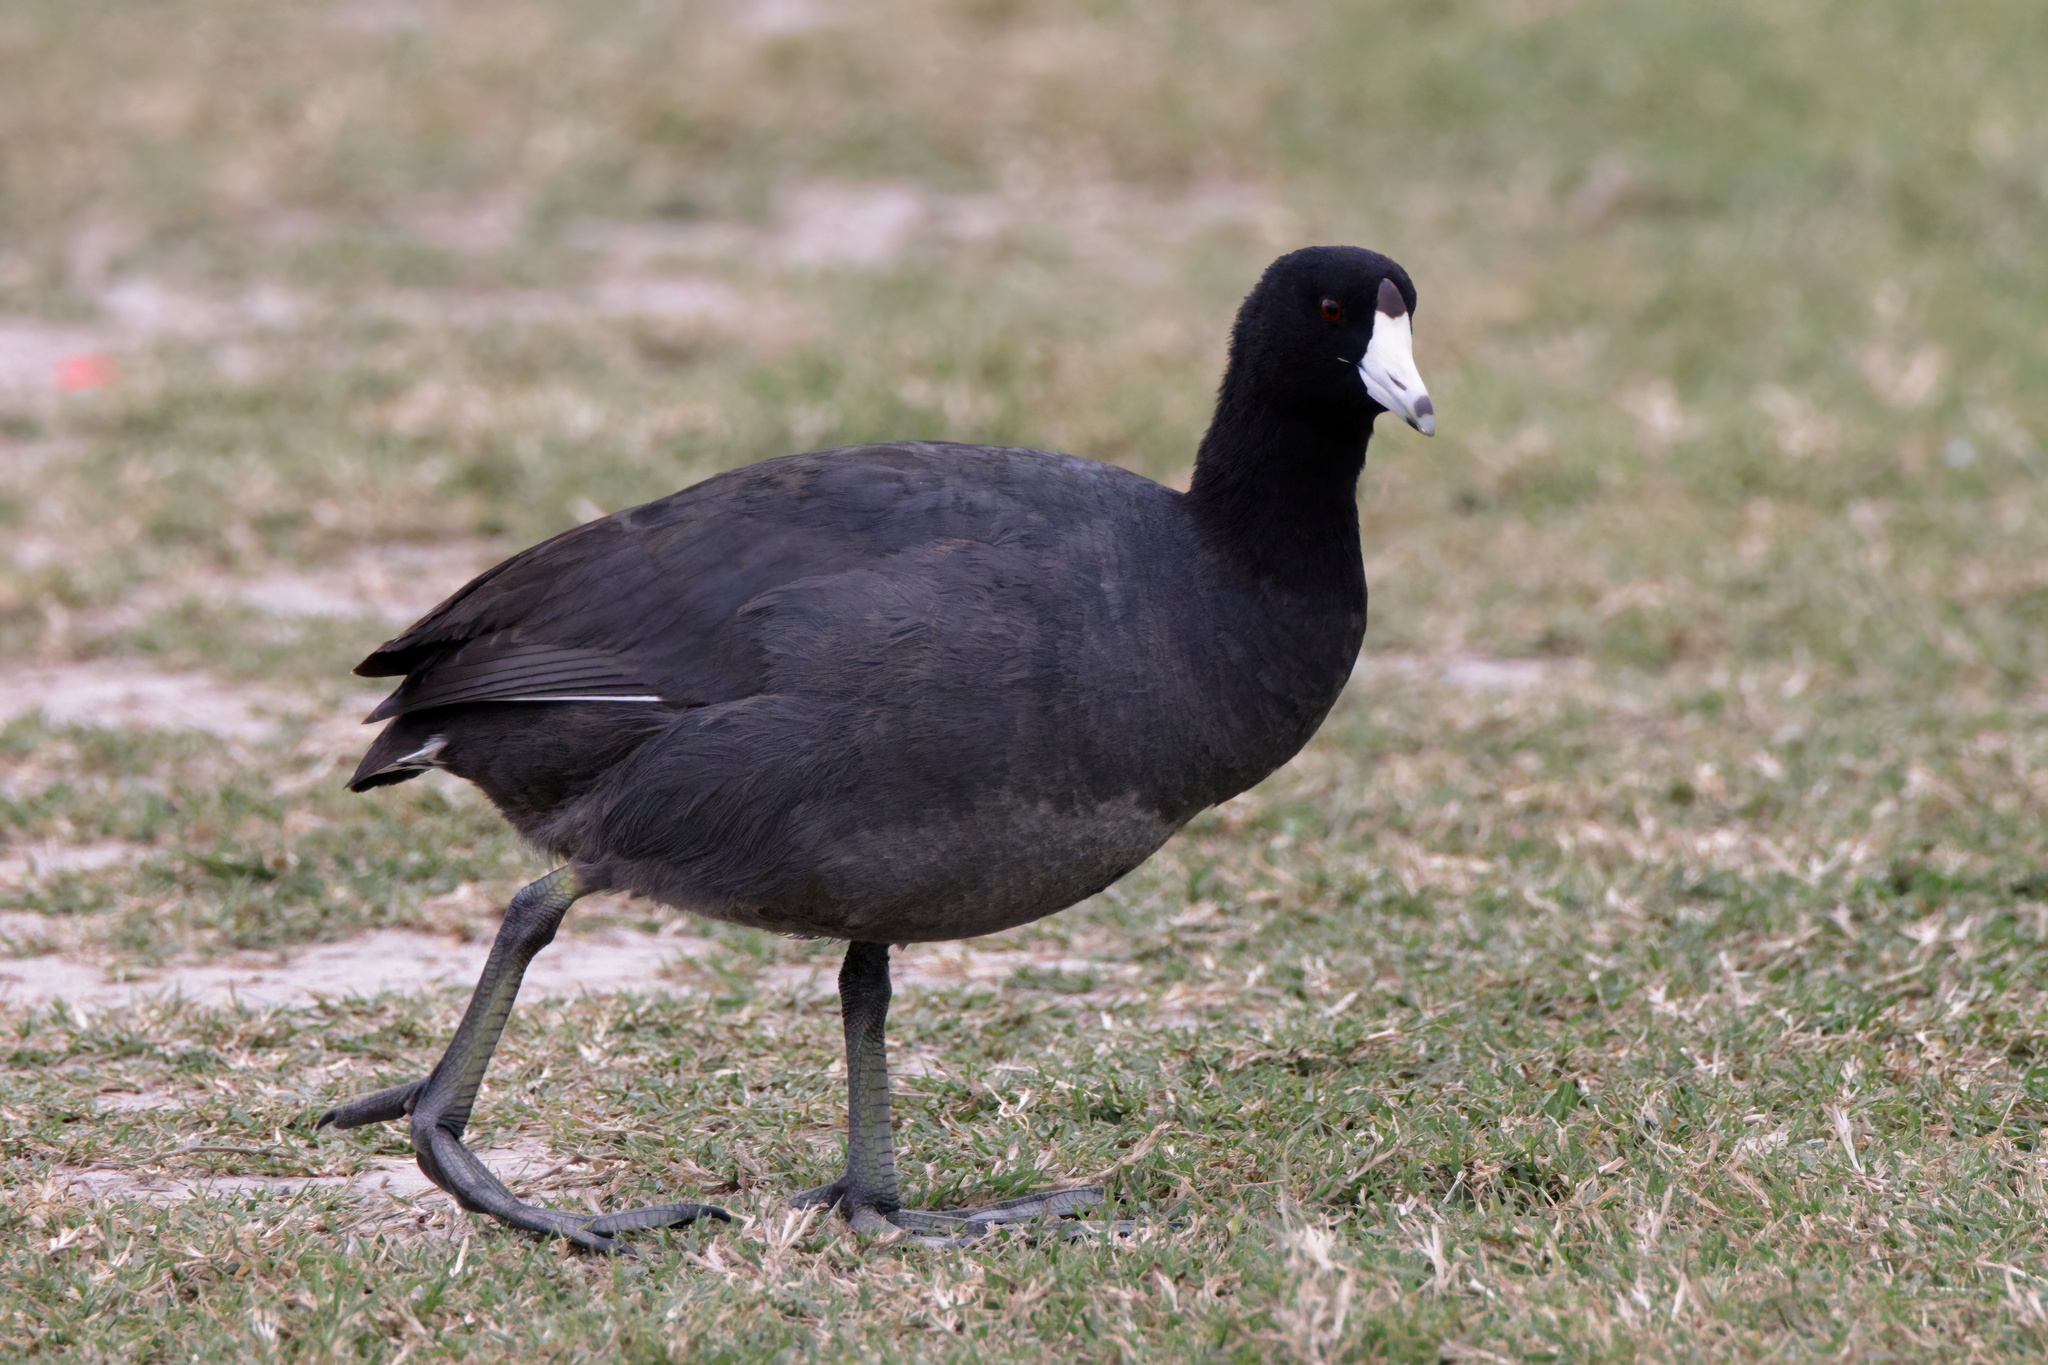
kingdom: Animalia
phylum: Chordata
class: Aves
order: Gruiformes
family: Rallidae
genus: Fulica
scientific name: Fulica americana
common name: American coot
